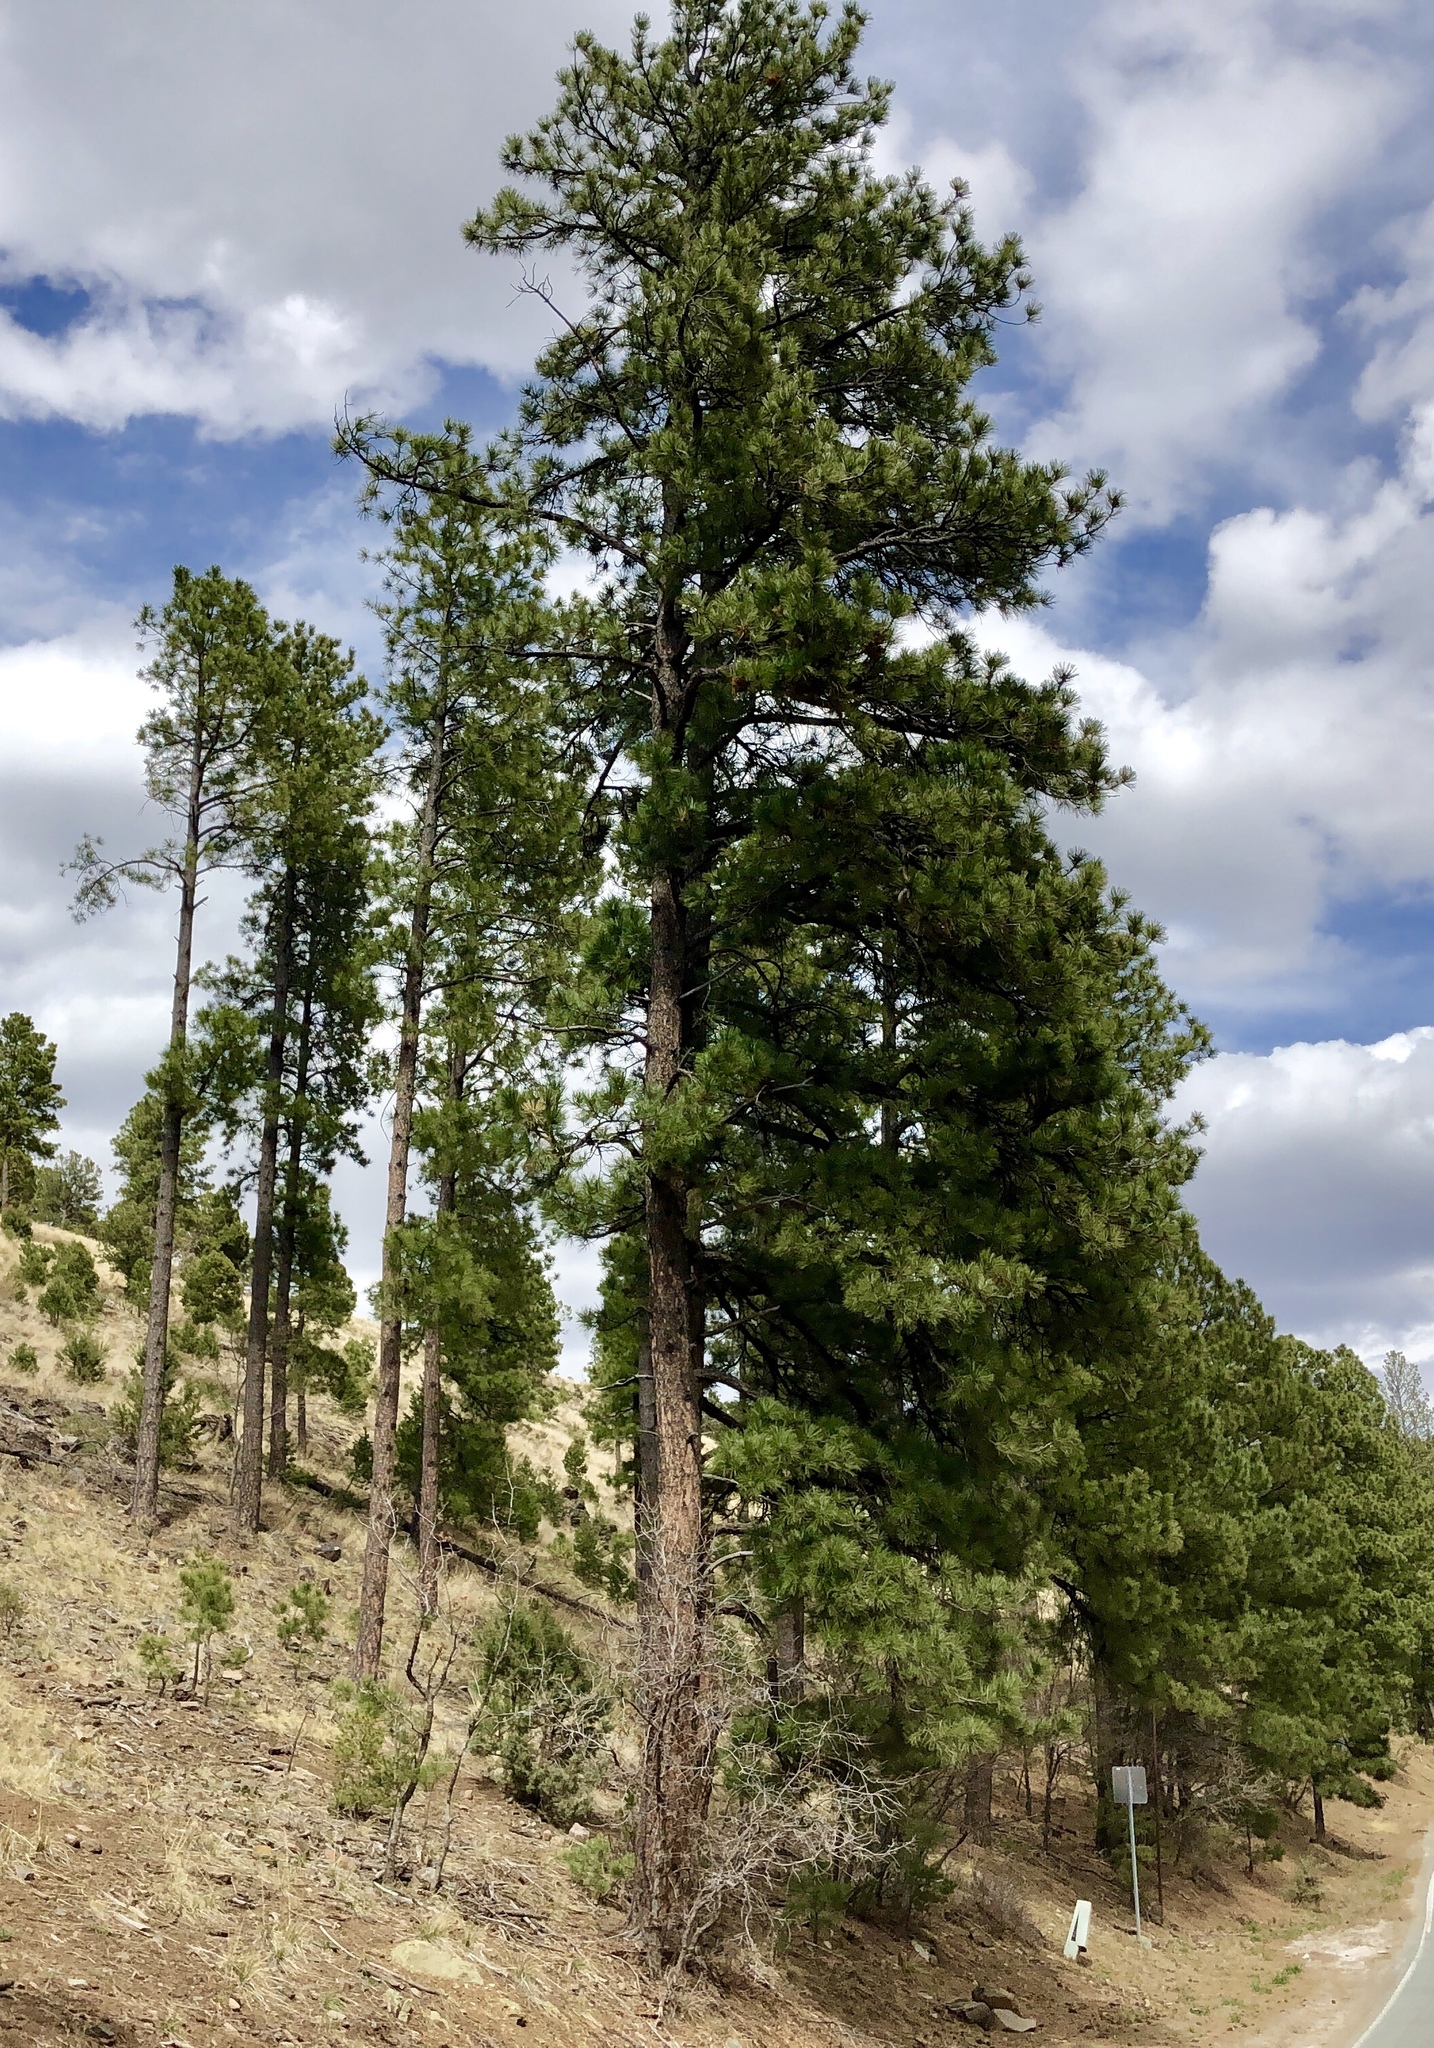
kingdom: Plantae
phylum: Tracheophyta
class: Pinopsida
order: Pinales
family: Pinaceae
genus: Pinus
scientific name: Pinus ponderosa
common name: Western yellow-pine
